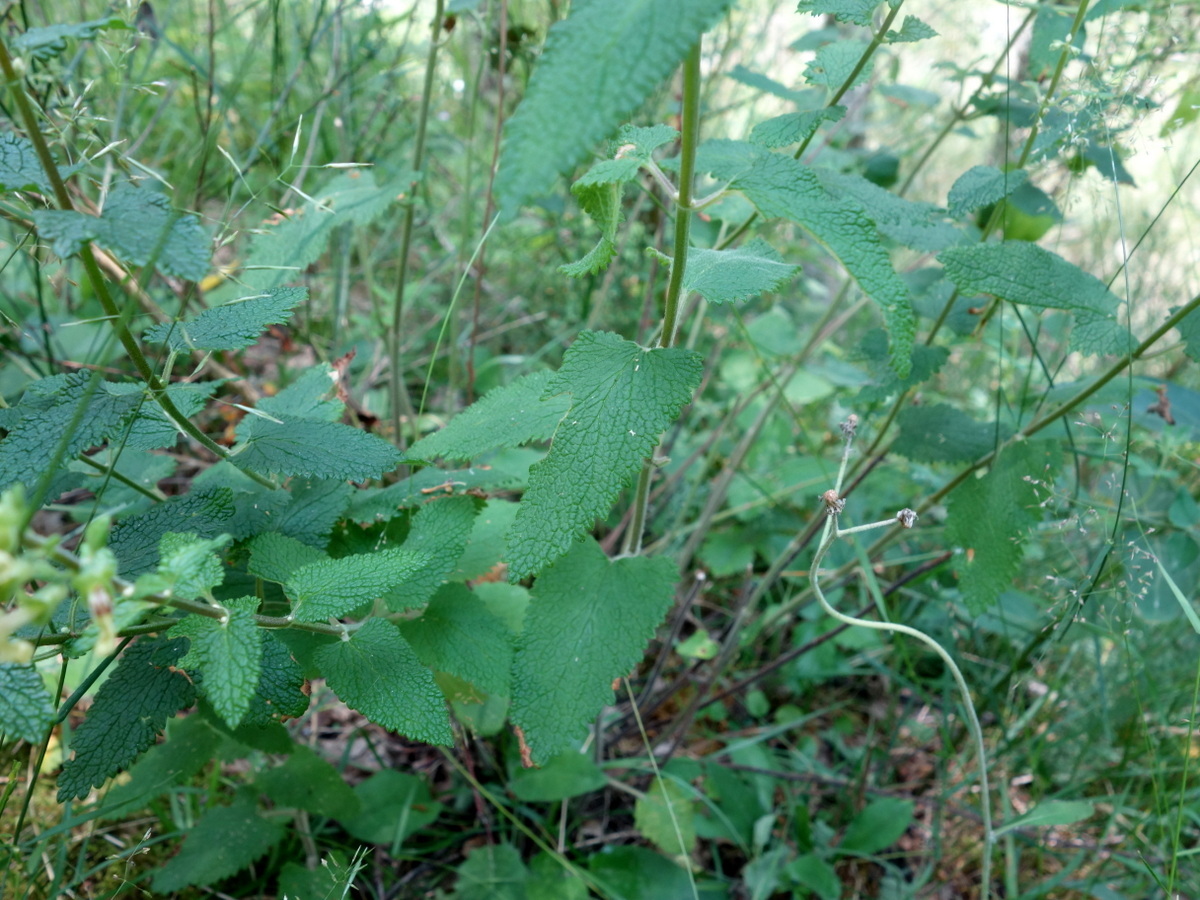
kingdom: Plantae
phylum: Tracheophyta
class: Magnoliopsida
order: Lamiales
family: Lamiaceae
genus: Teucrium
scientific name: Teucrium scorodonia
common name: Woodland germander
